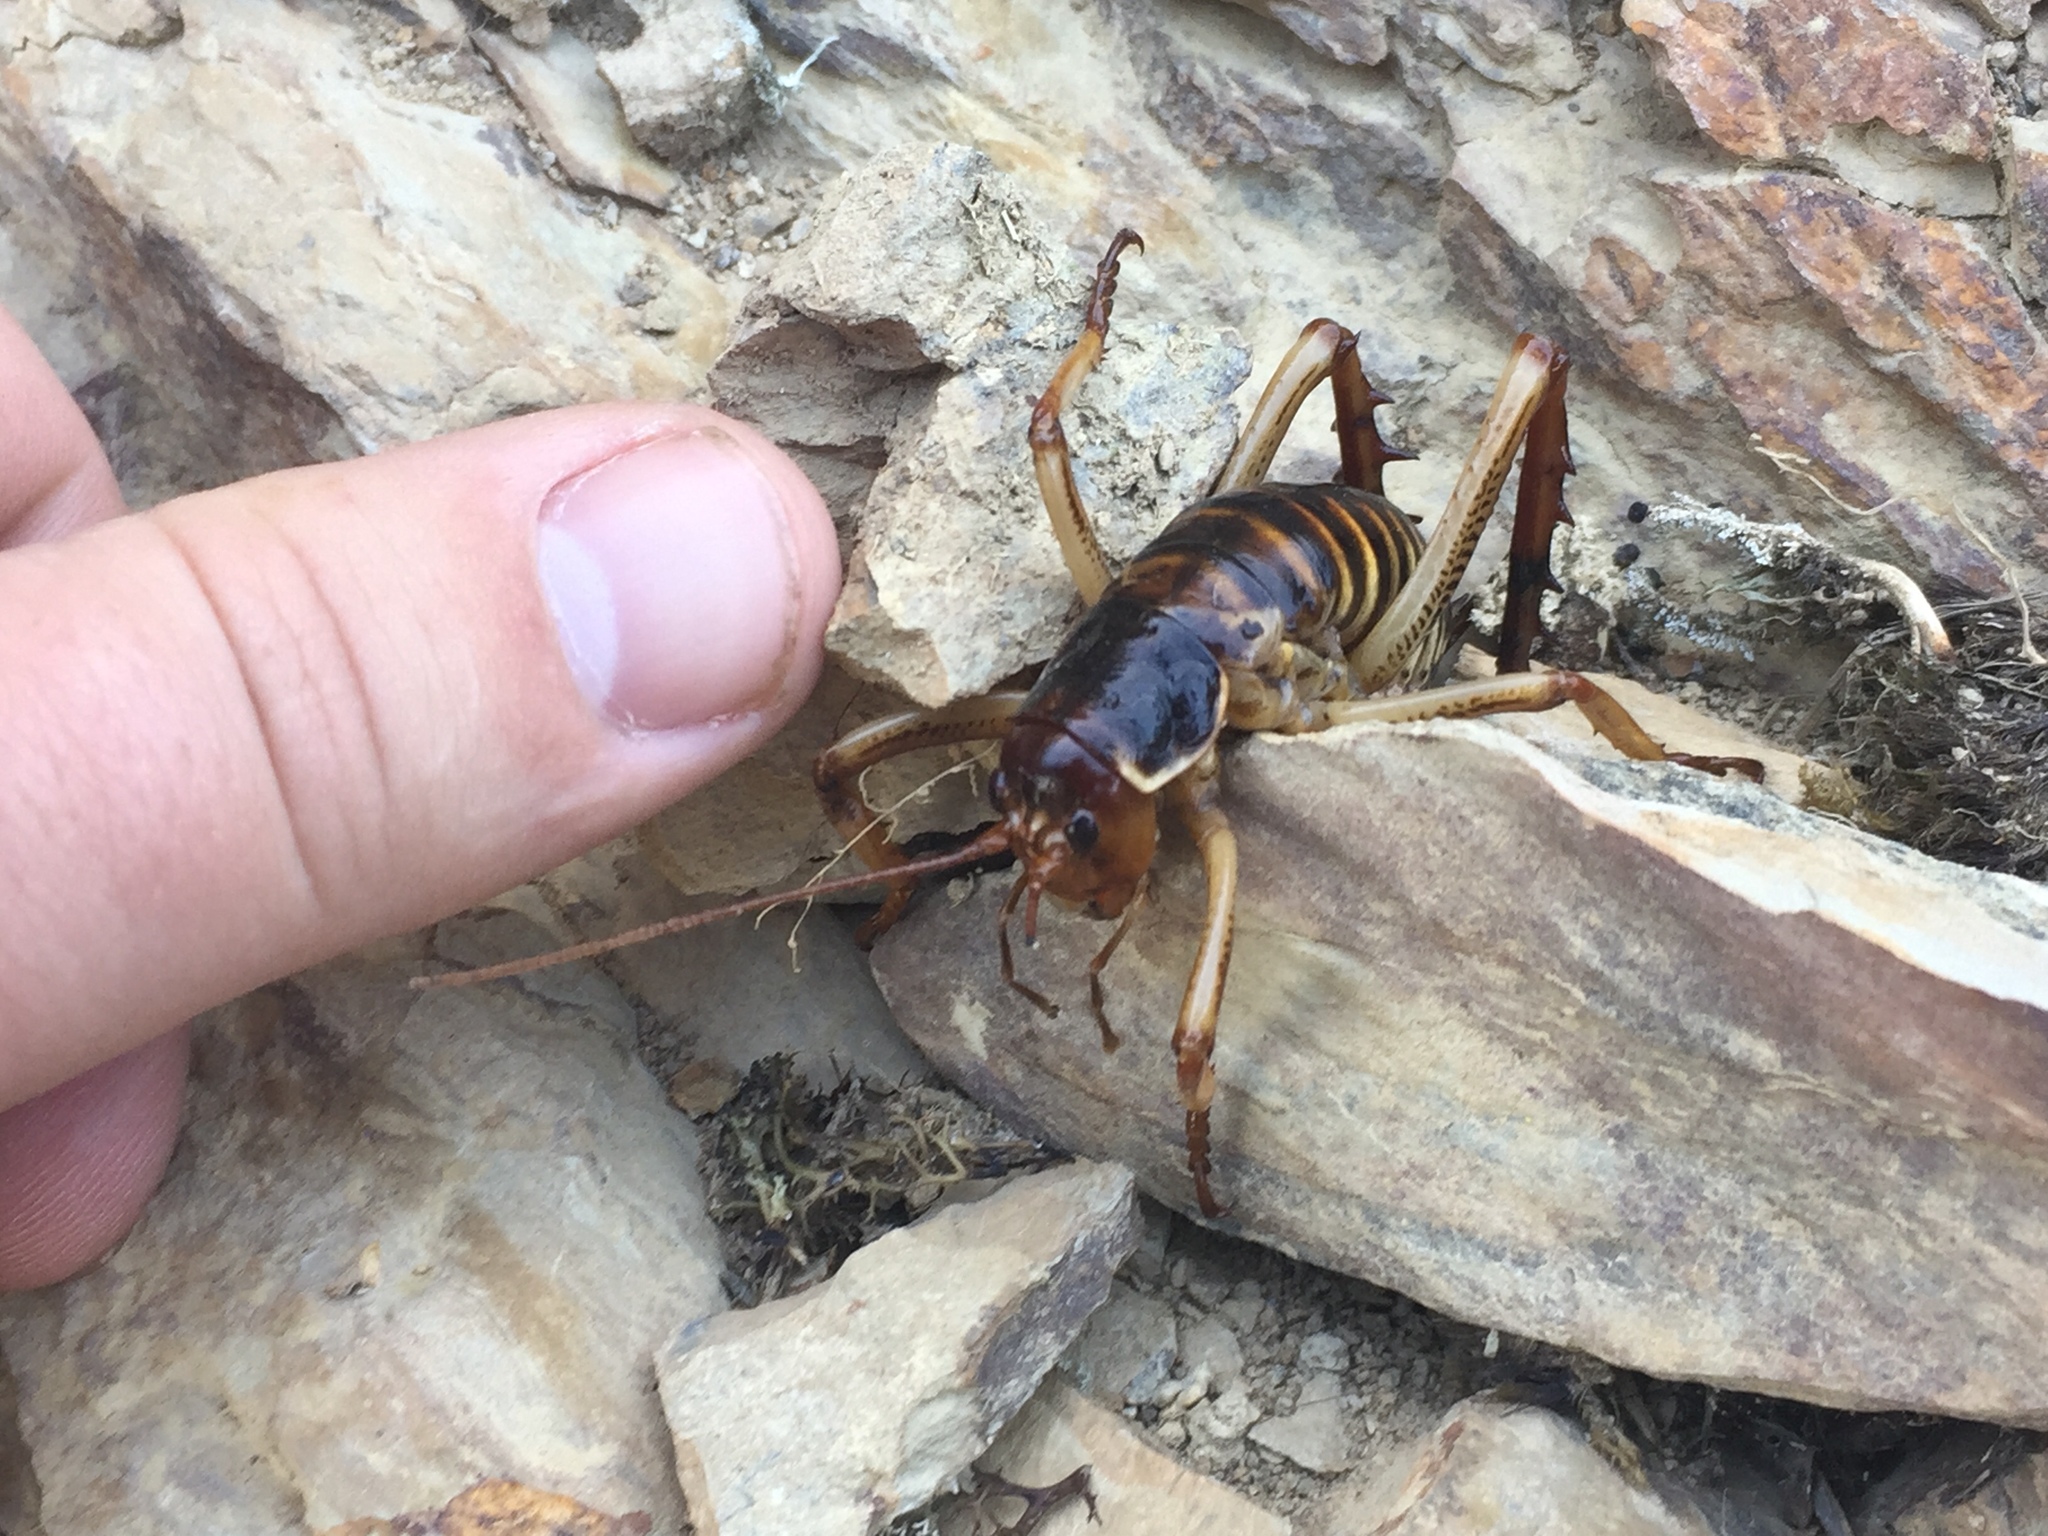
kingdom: Animalia
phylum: Arthropoda
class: Insecta
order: Orthoptera
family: Anostostomatidae
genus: Hemideina
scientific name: Hemideina crassidens
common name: Wellington tree weta
